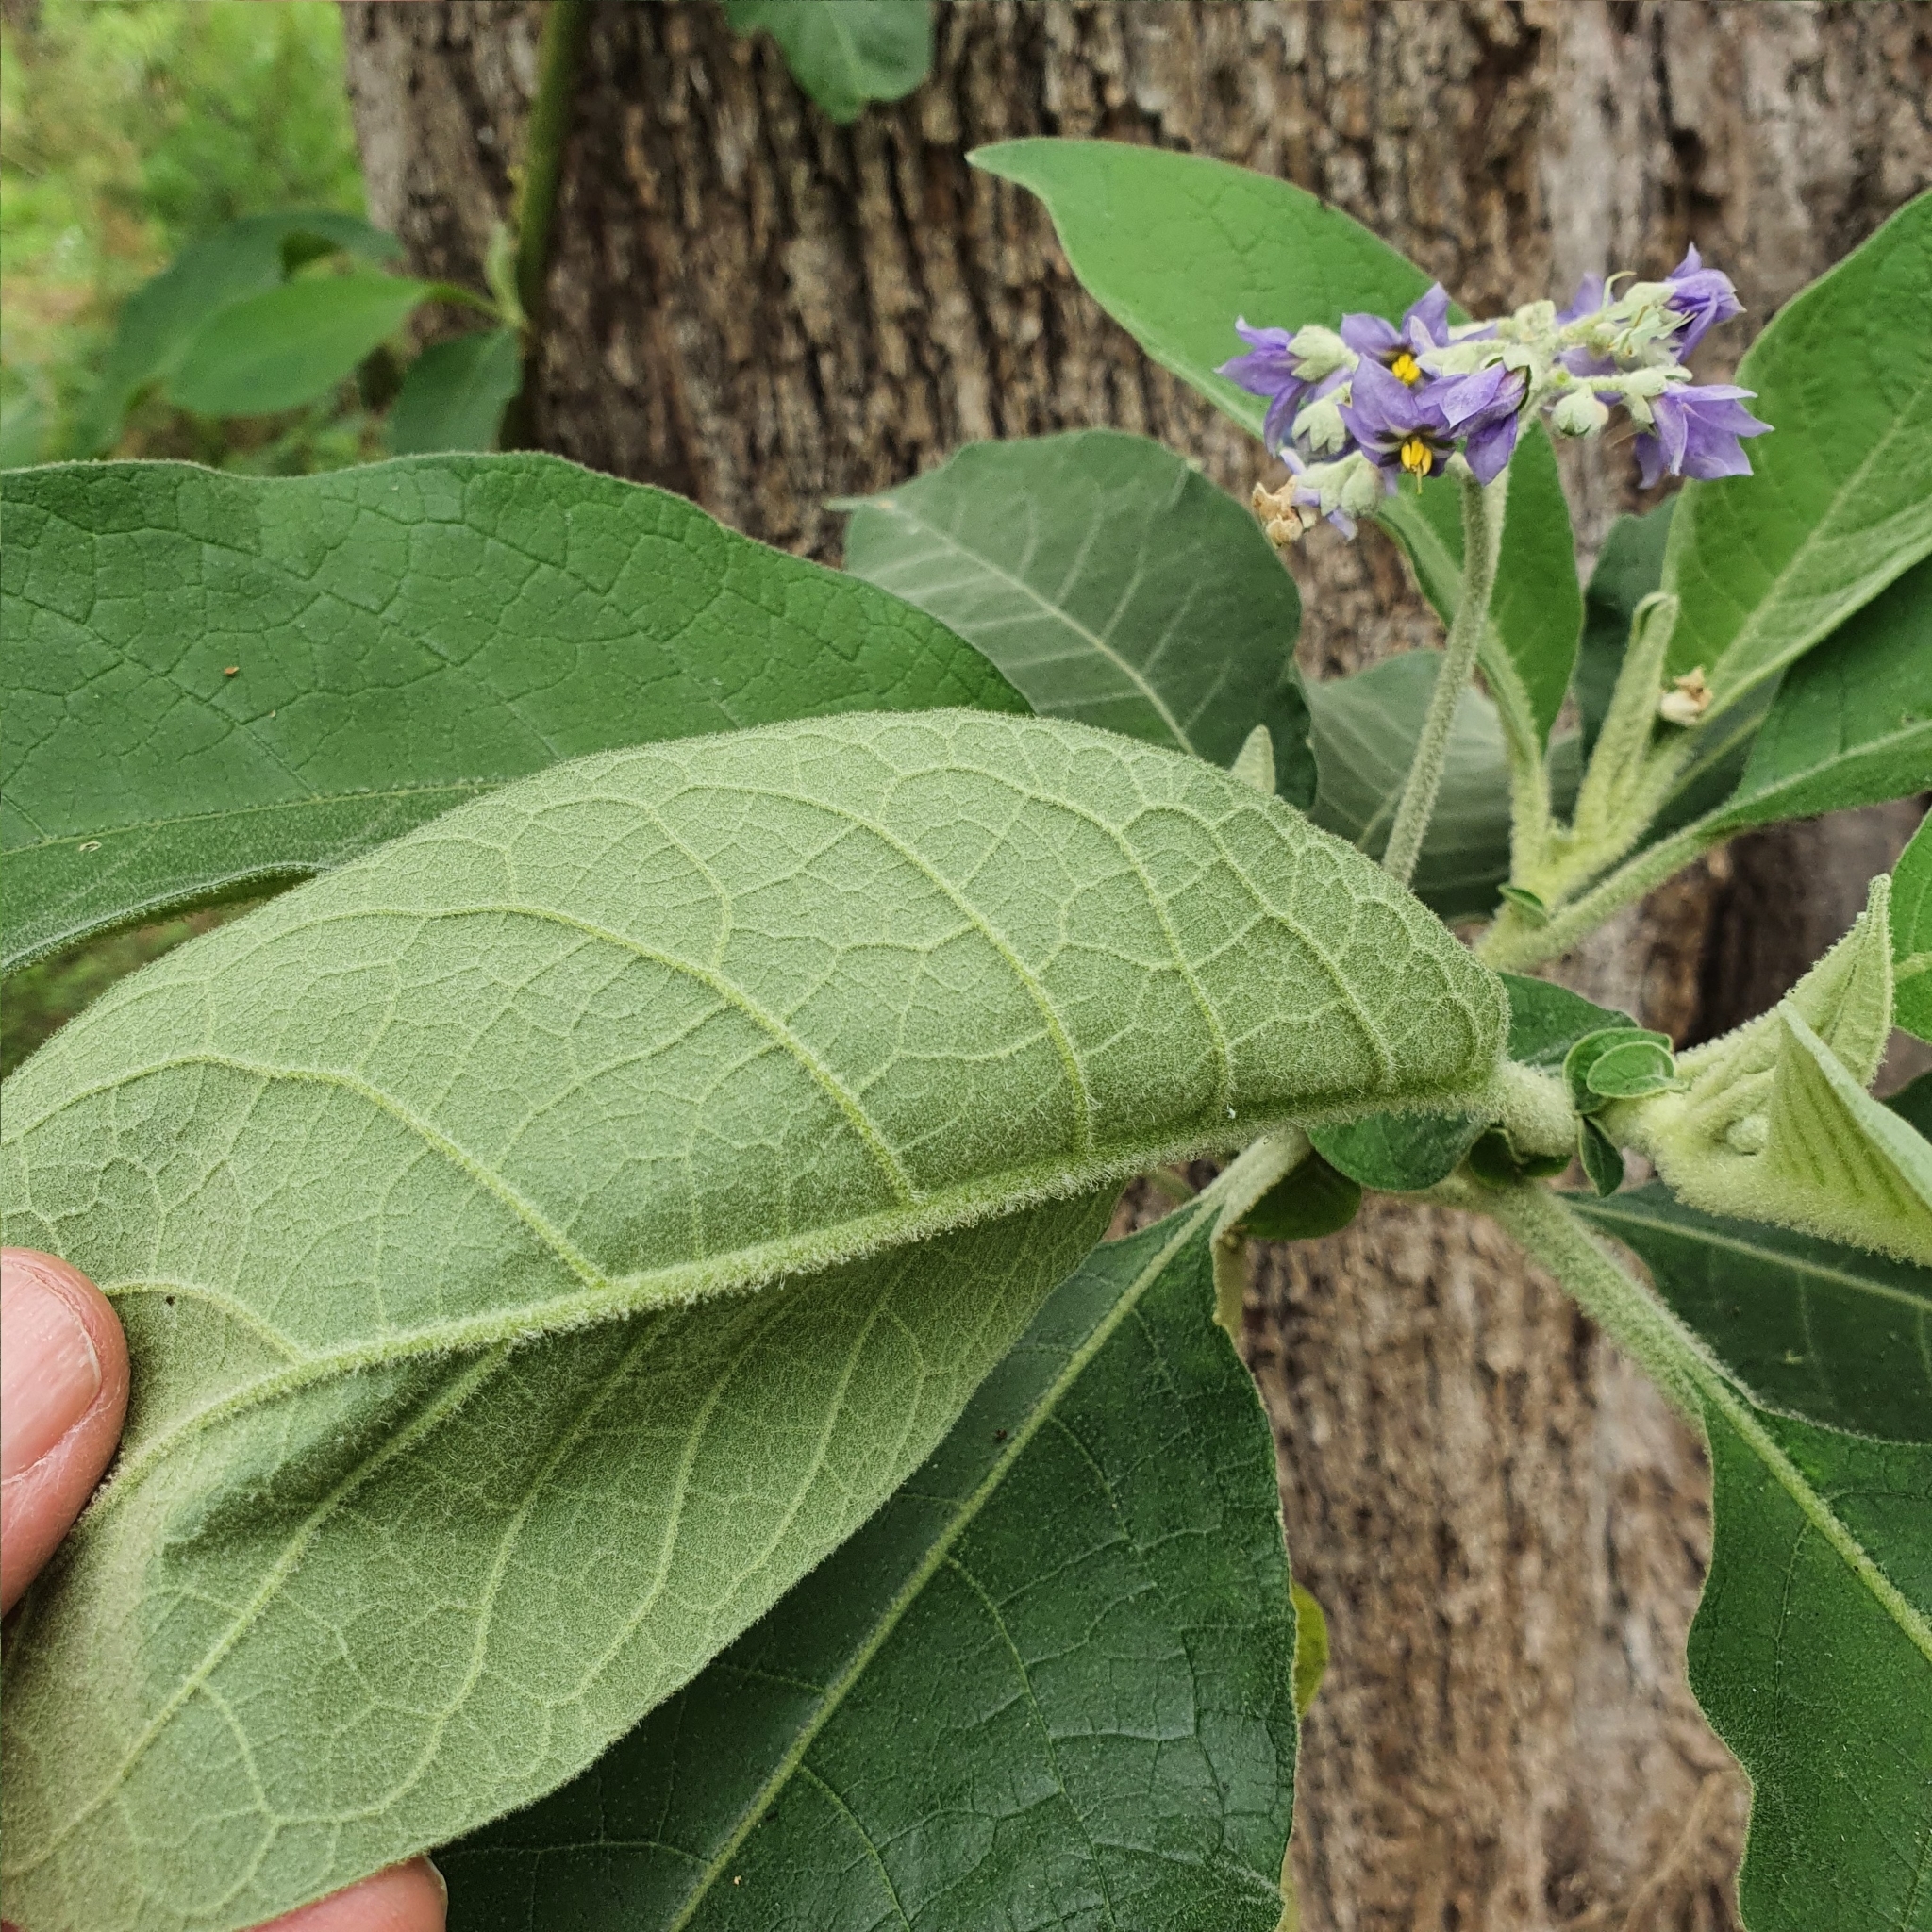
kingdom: Plantae
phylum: Tracheophyta
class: Magnoliopsida
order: Solanales
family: Solanaceae
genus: Solanum
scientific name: Solanum mauritianum
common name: Earleaf nightshade
